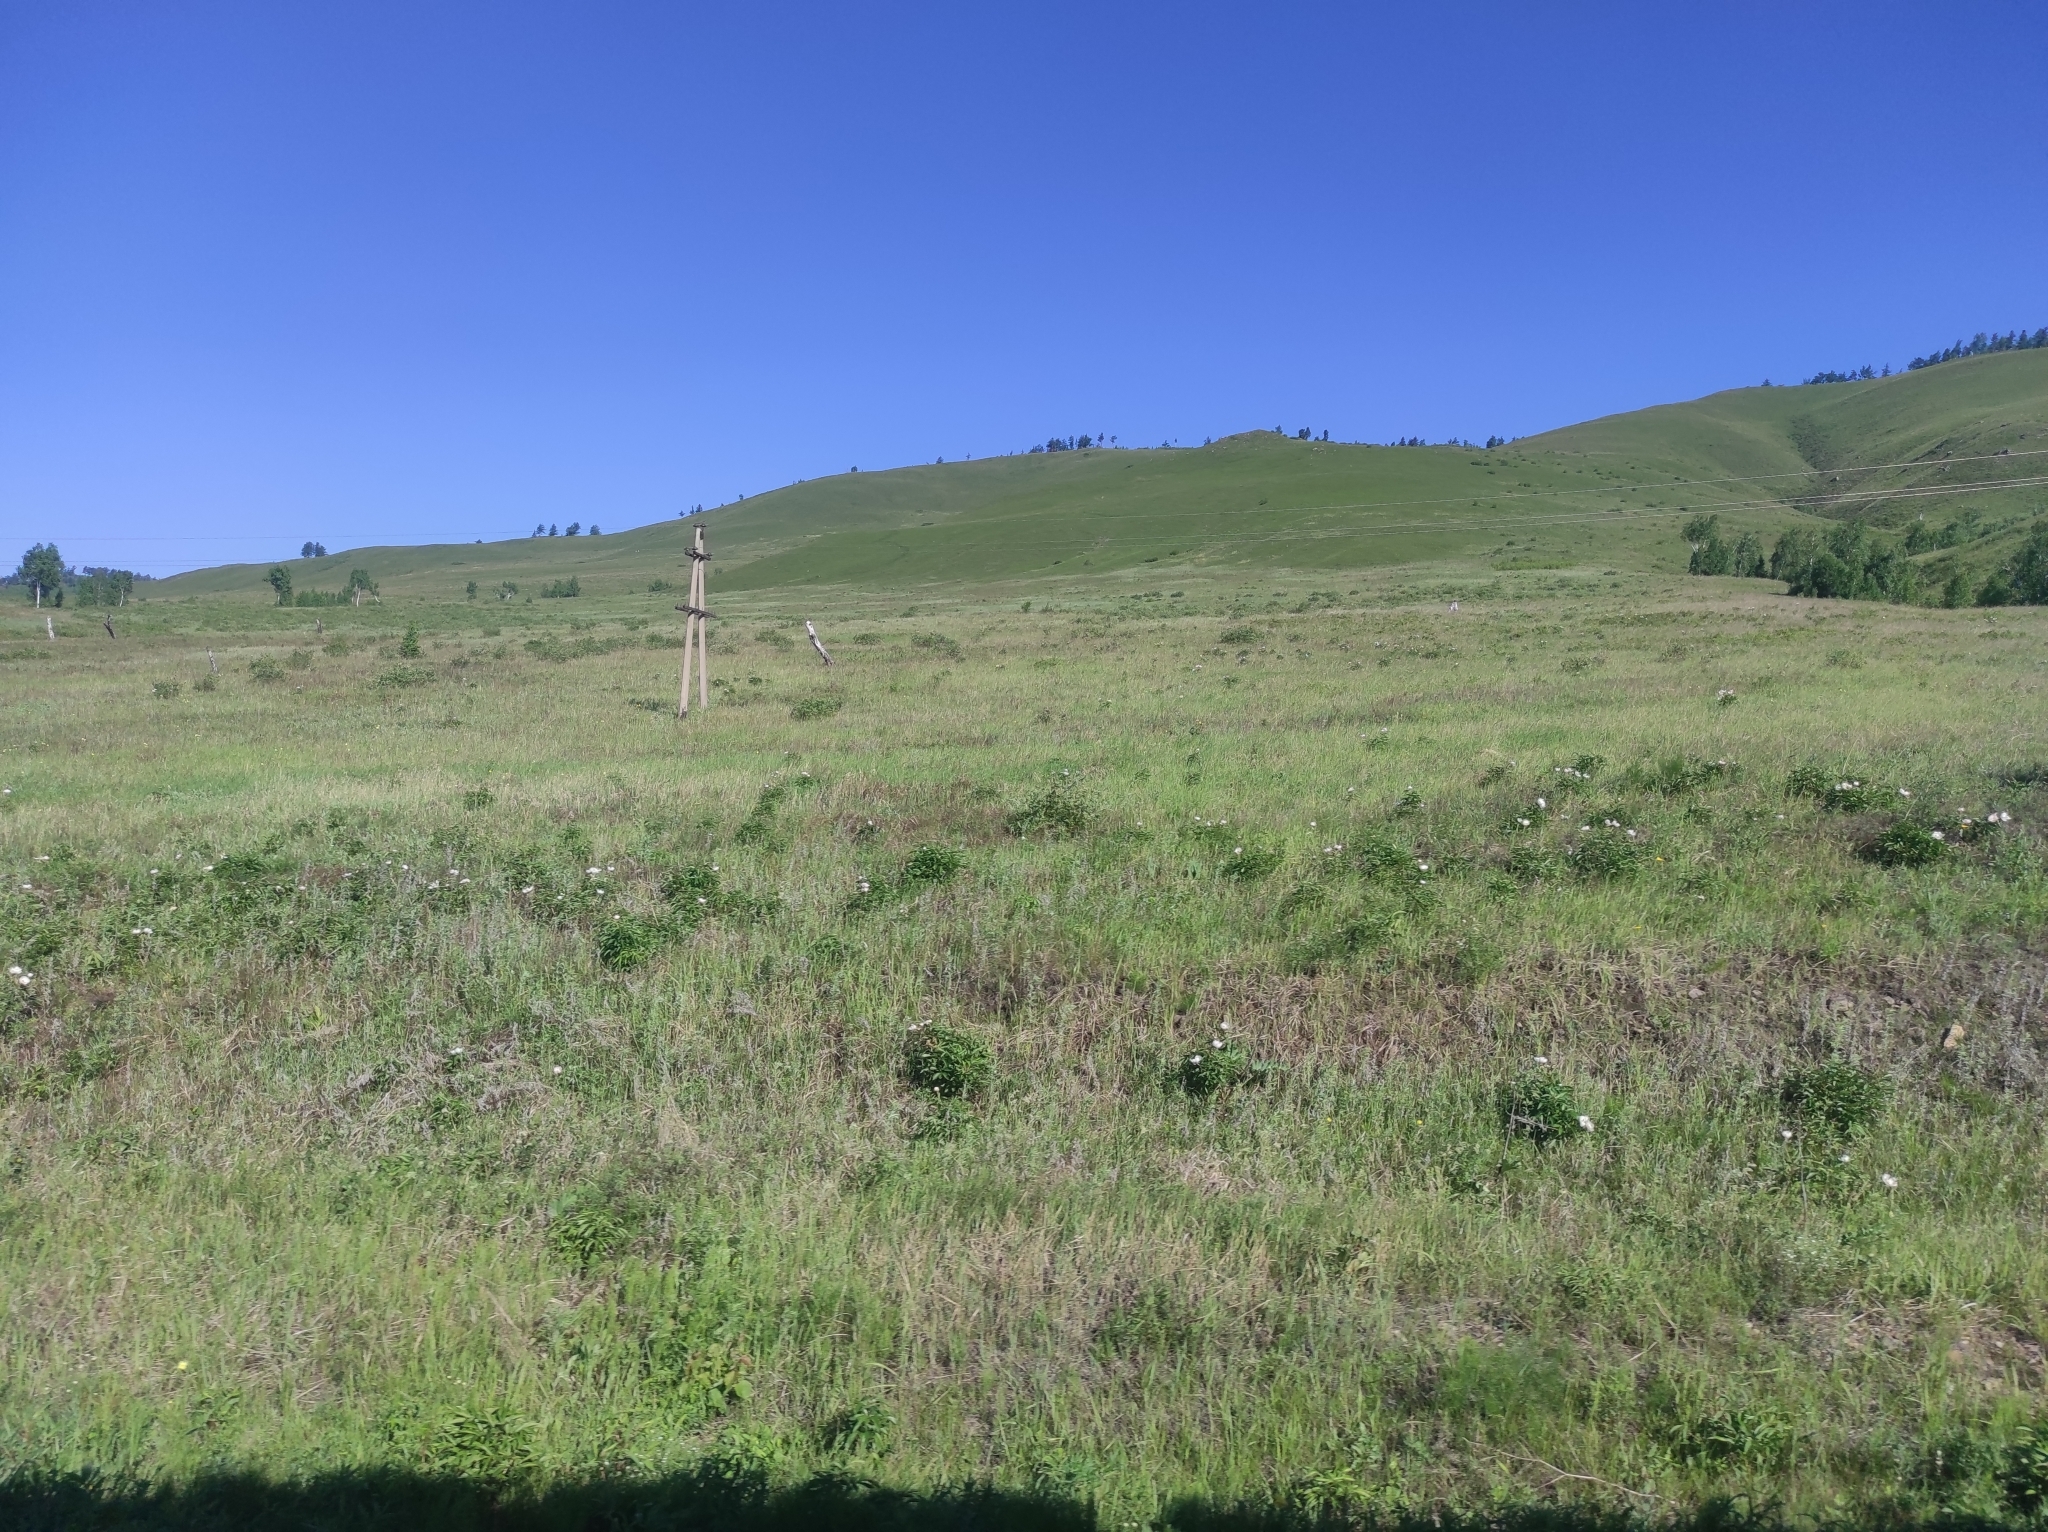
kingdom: Plantae
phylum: Tracheophyta
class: Magnoliopsida
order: Saxifragales
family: Paeoniaceae
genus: Paeonia
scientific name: Paeonia lactiflora
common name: Chinese peony
